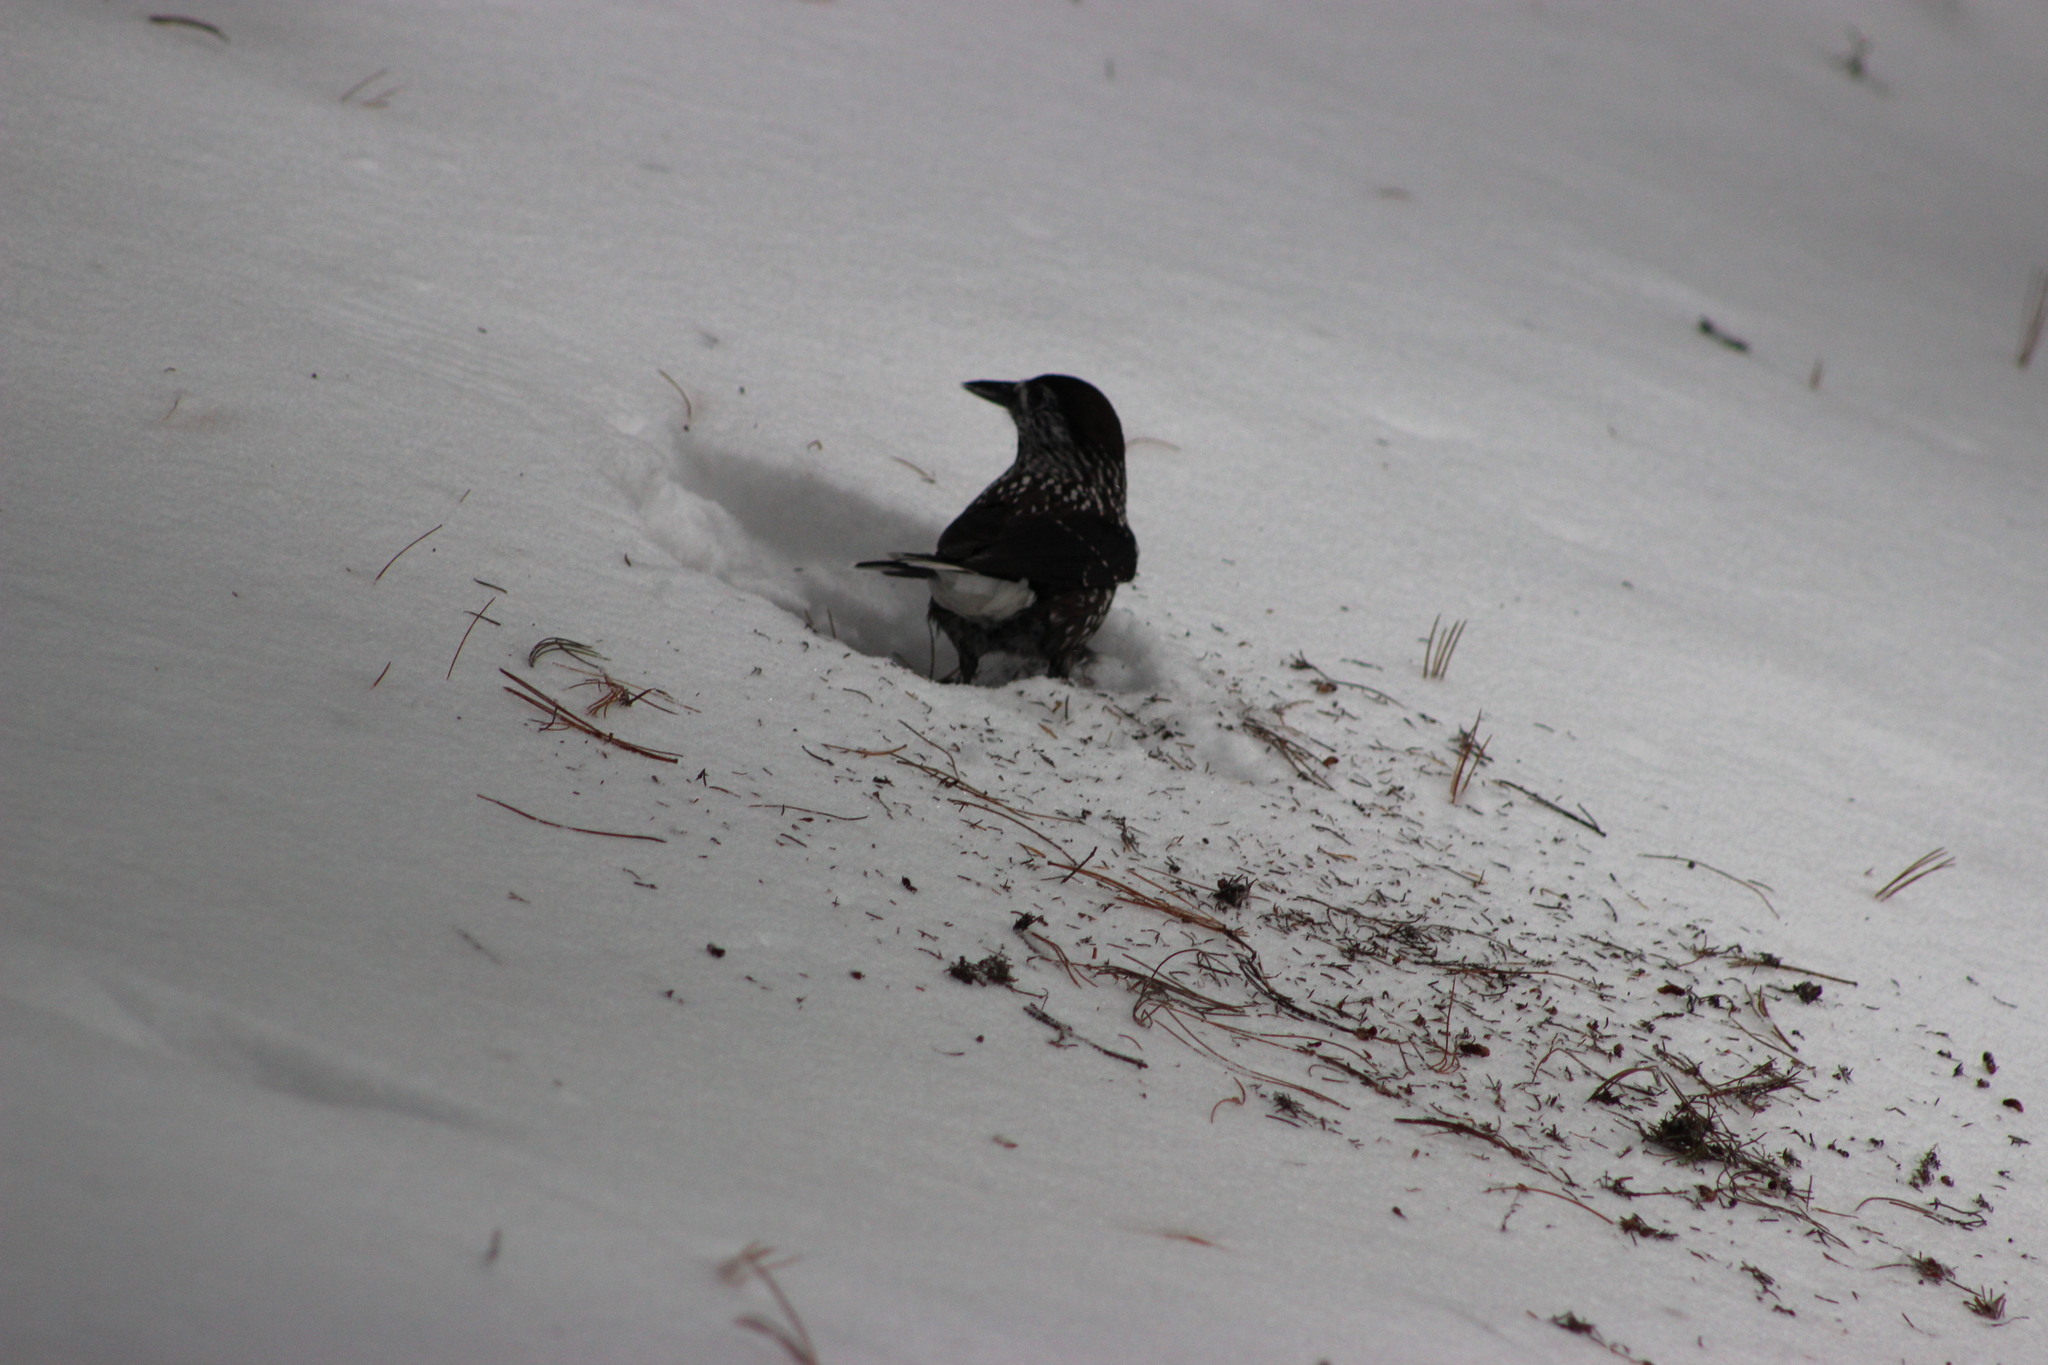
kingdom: Animalia
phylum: Chordata
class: Aves
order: Passeriformes
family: Corvidae
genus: Nucifraga
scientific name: Nucifraga caryocatactes
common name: Spotted nutcracker
